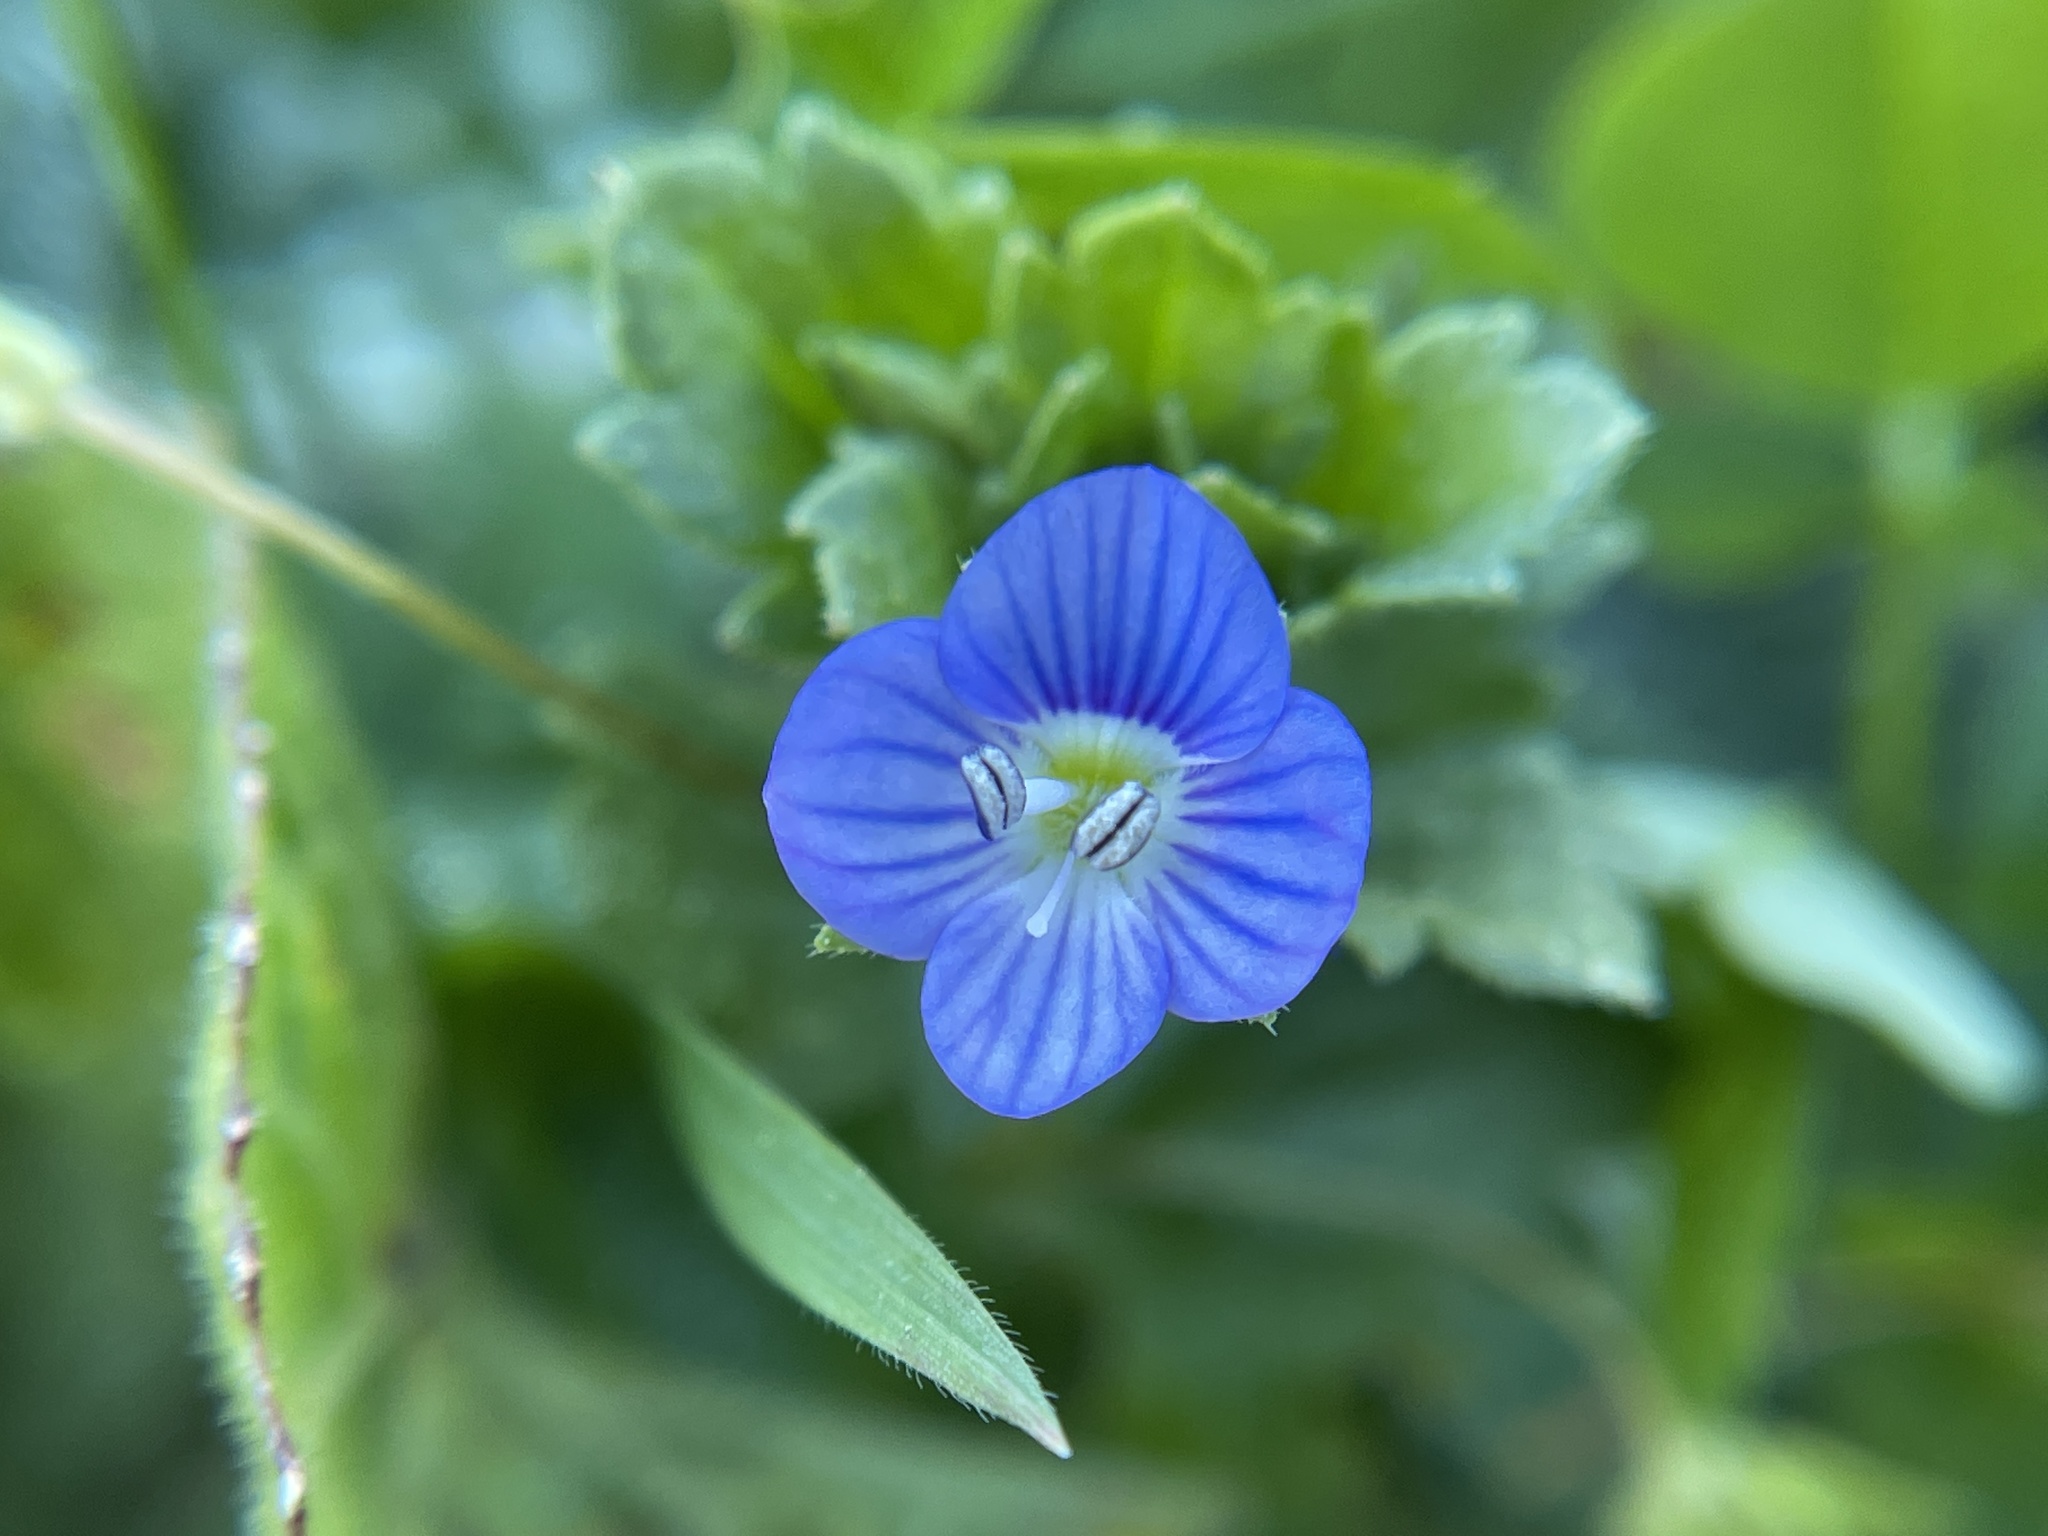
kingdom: Plantae
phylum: Tracheophyta
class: Magnoliopsida
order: Lamiales
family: Plantaginaceae
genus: Veronica
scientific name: Veronica persica
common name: Common field-speedwell
